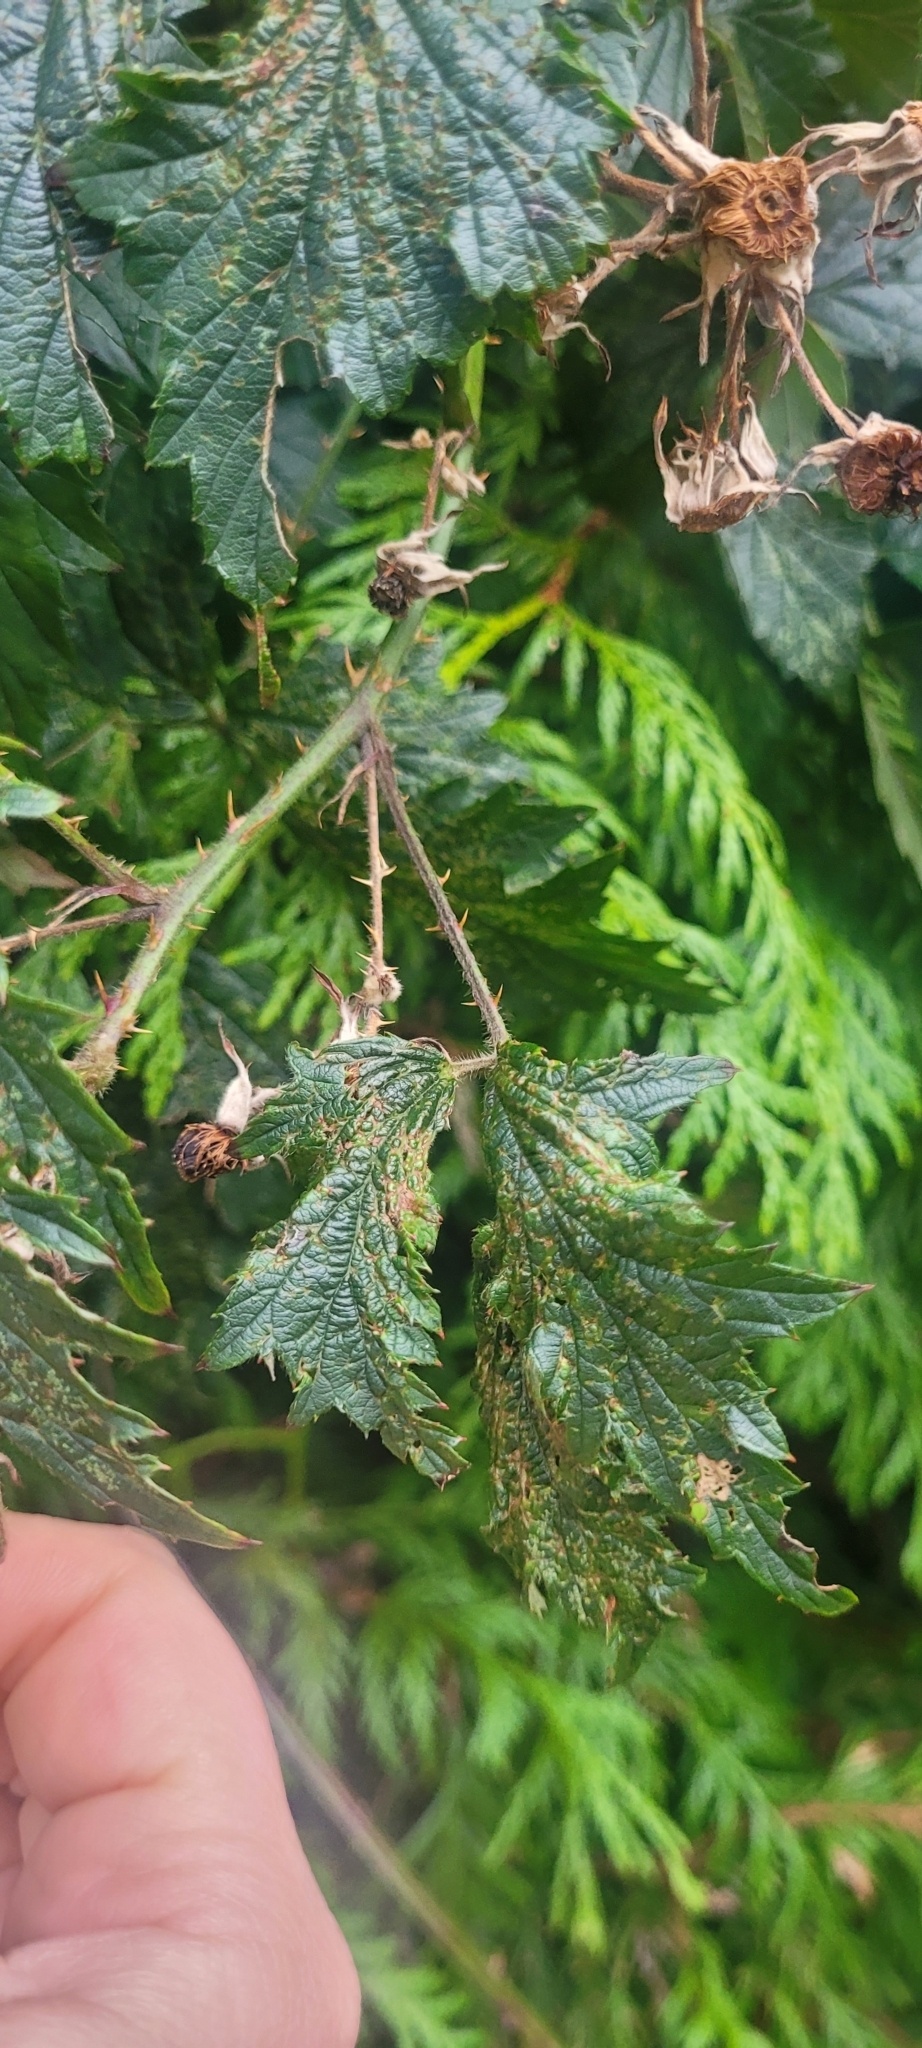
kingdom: Plantae
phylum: Tracheophyta
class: Magnoliopsida
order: Rosales
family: Rosaceae
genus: Rubus
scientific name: Rubus laciniatus
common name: Evergreen blackberry
